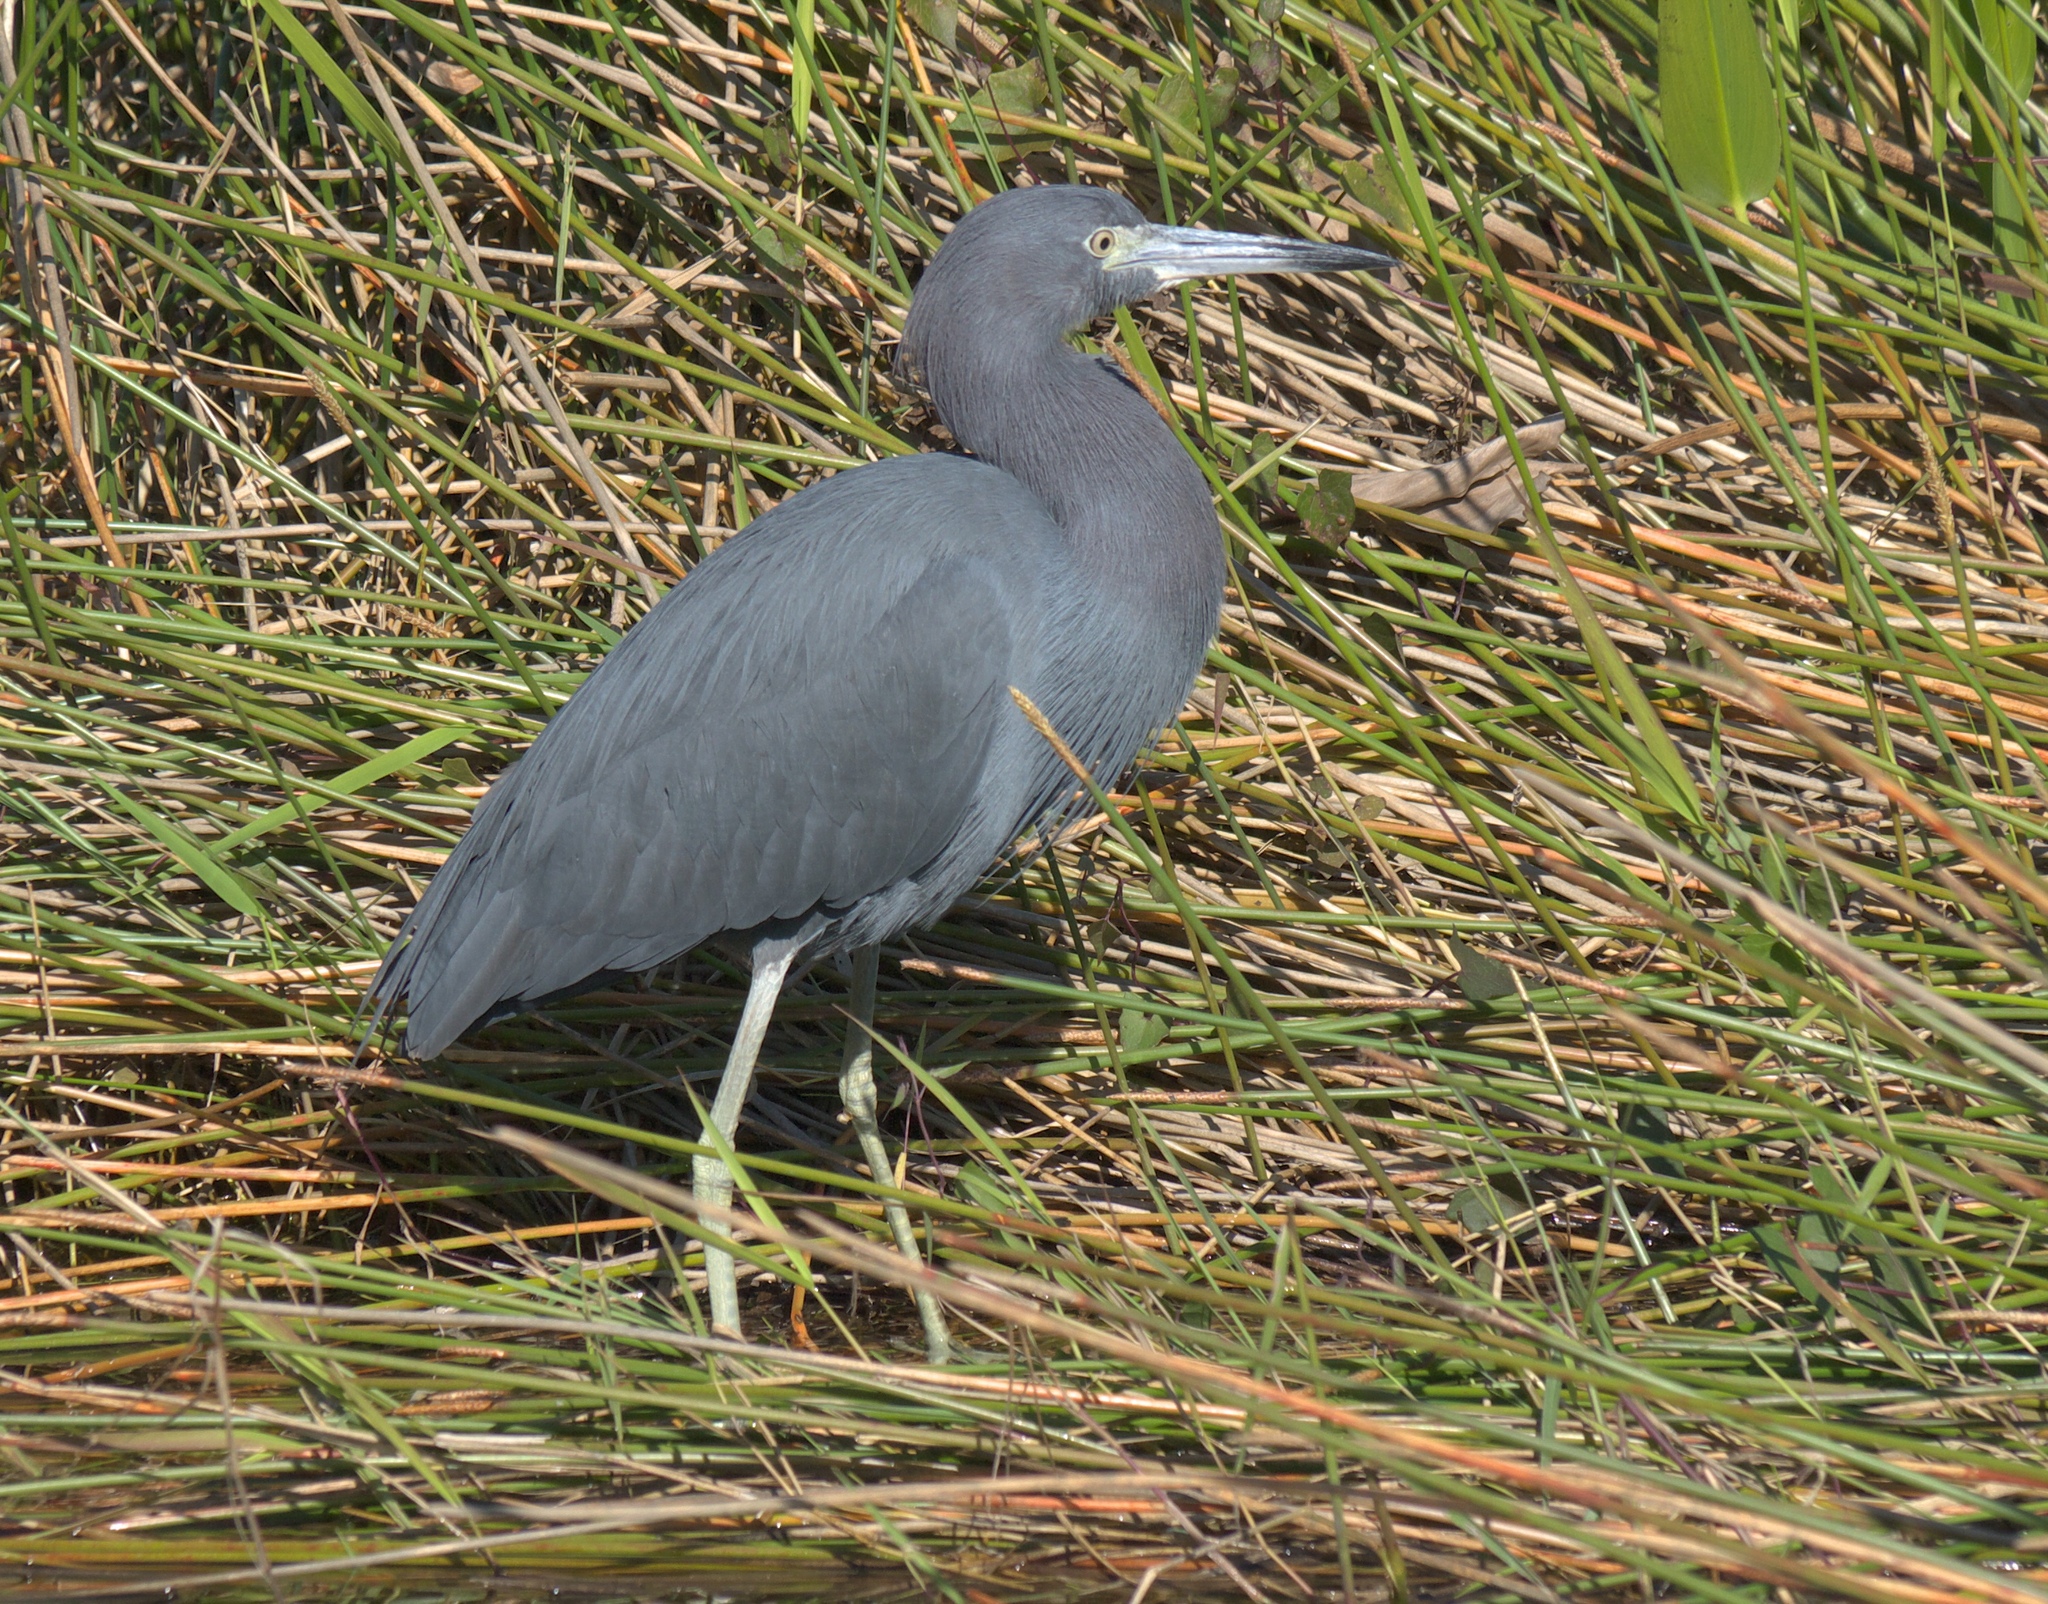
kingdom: Animalia
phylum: Chordata
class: Aves
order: Pelecaniformes
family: Ardeidae
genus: Egretta
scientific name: Egretta caerulea
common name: Little blue heron
